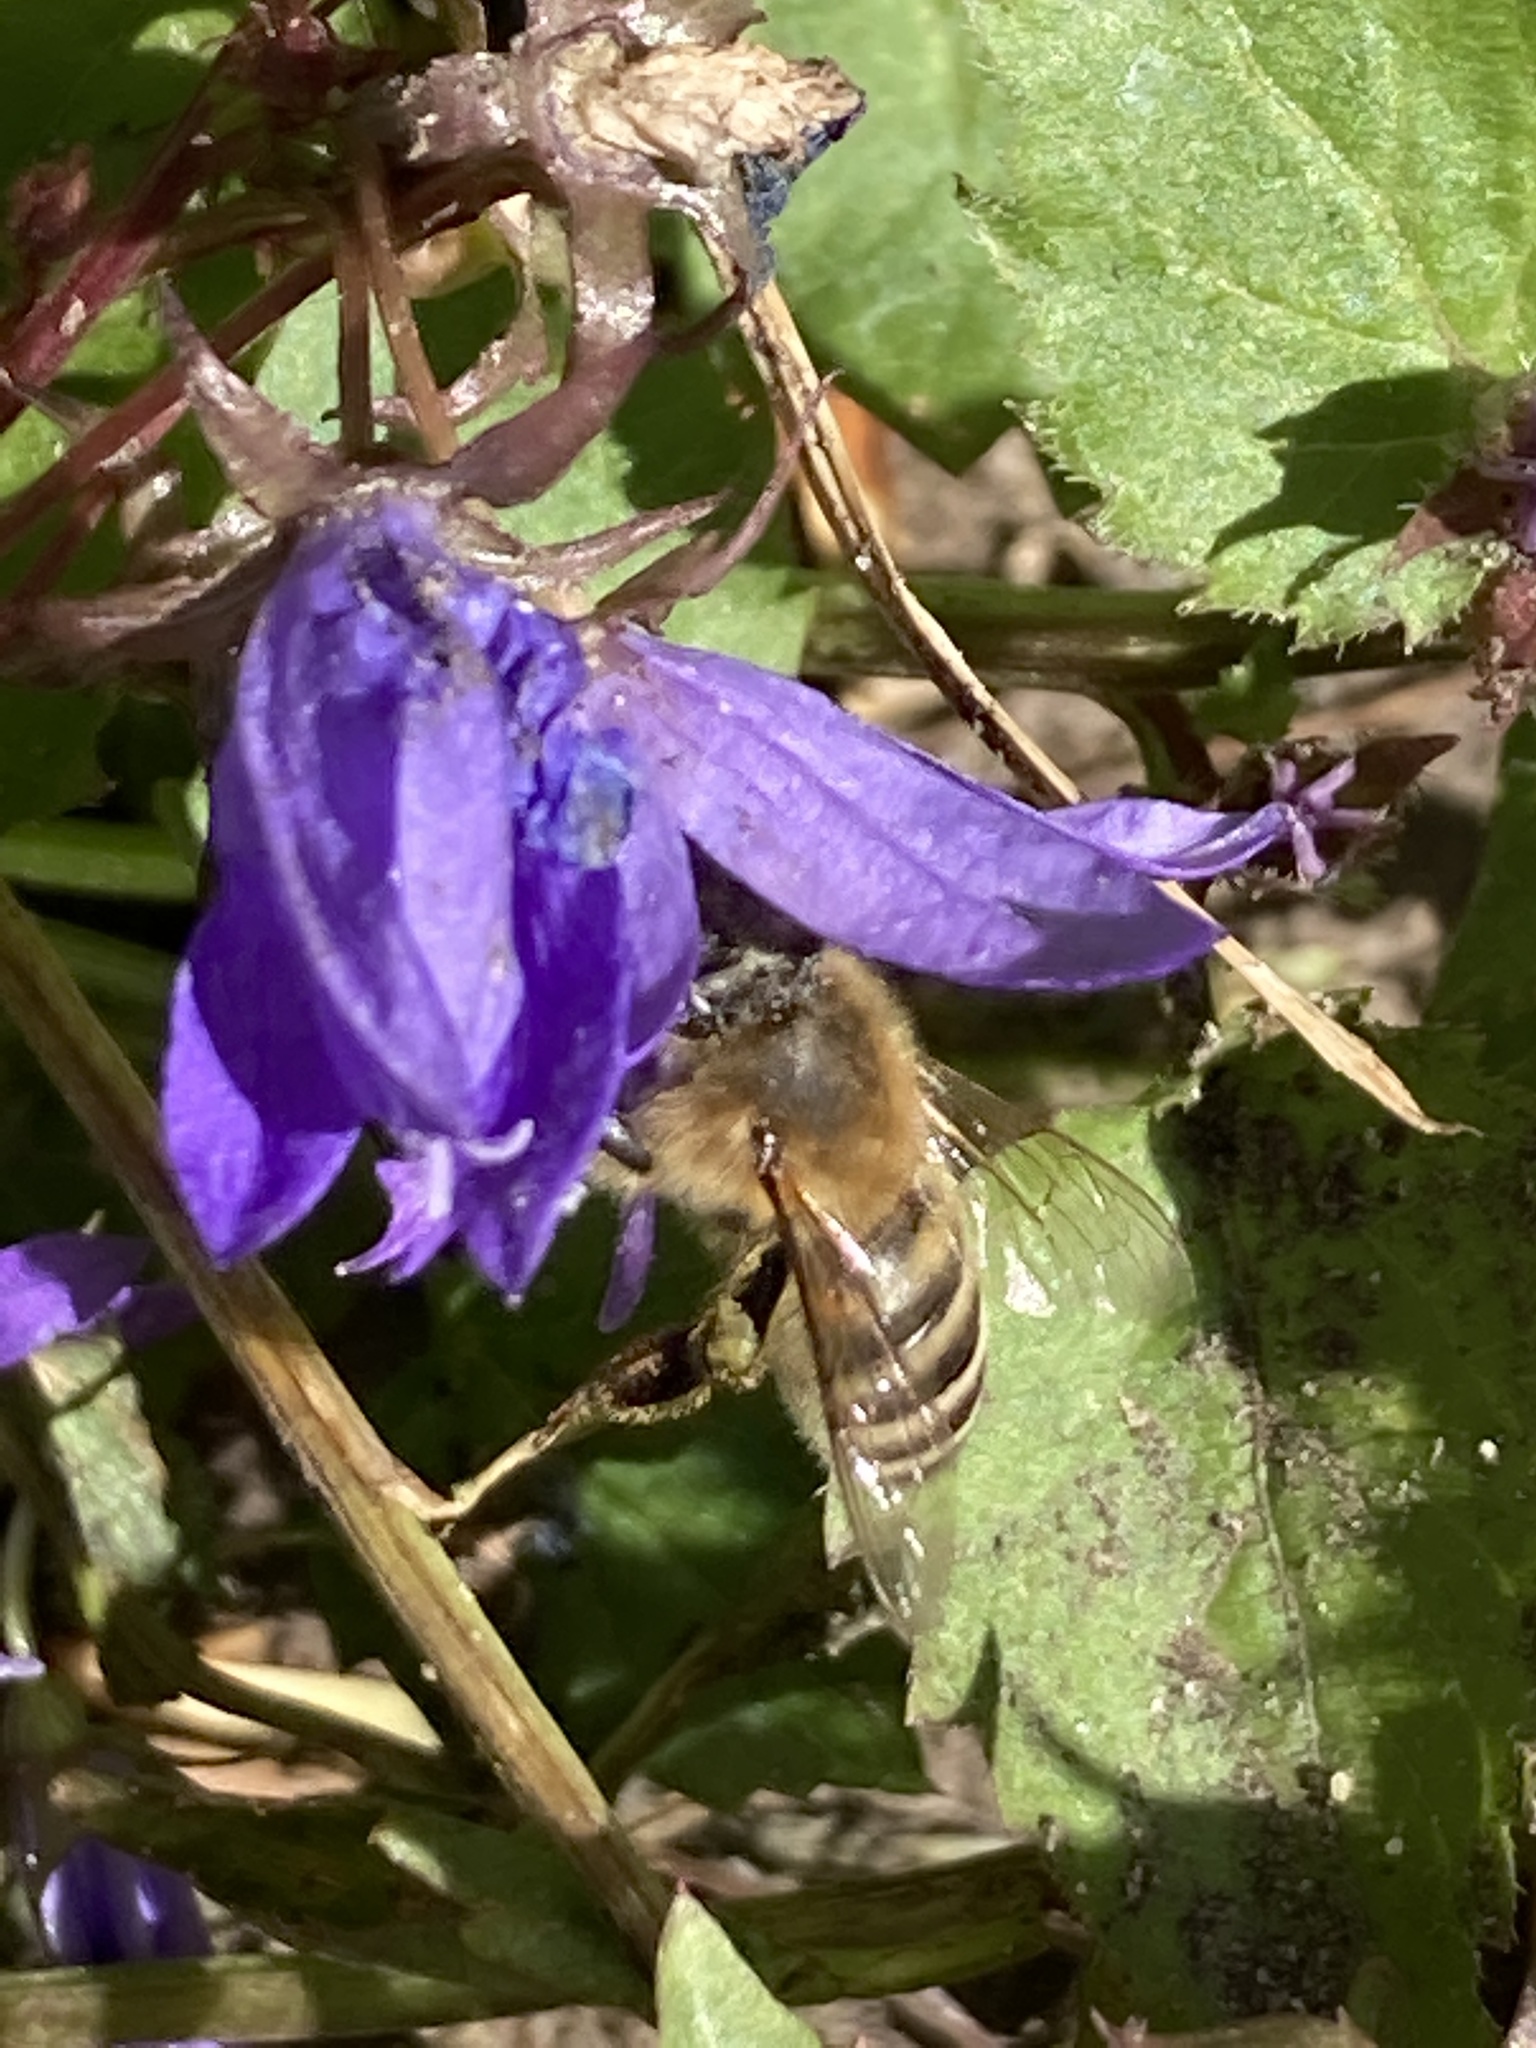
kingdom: Animalia
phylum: Arthropoda
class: Insecta
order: Hymenoptera
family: Apidae
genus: Apis
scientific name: Apis mellifera
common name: Honey bee
